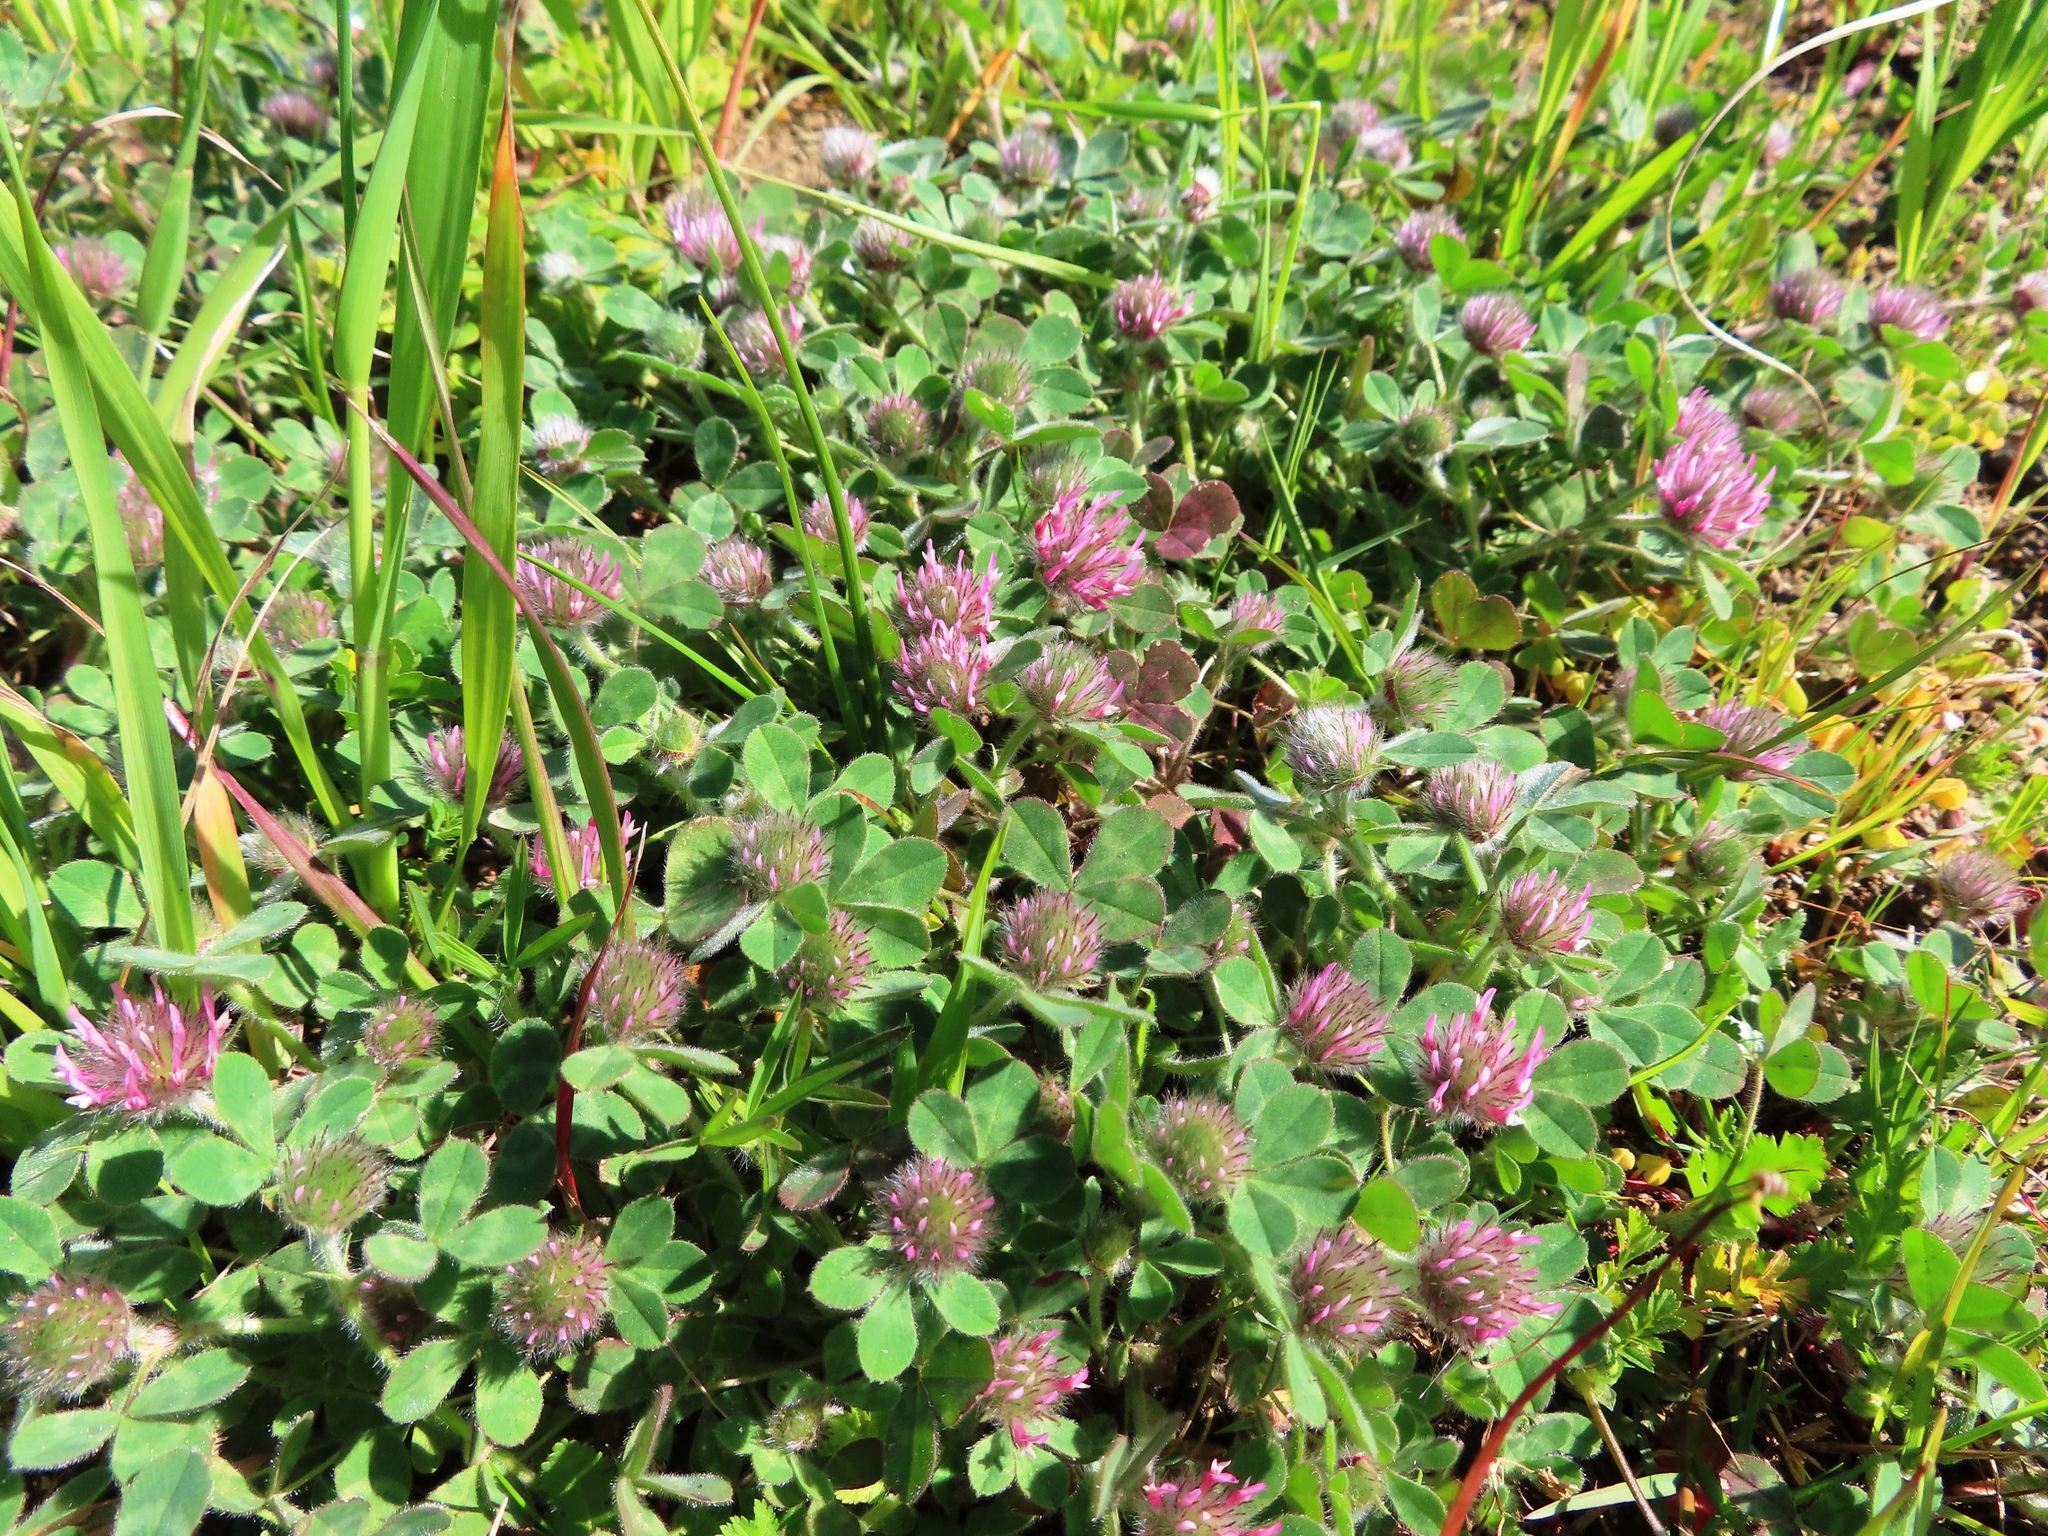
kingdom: Plantae
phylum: Tracheophyta
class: Magnoliopsida
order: Fabales
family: Fabaceae
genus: Trifolium
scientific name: Trifolium hirtum
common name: Rose clover
